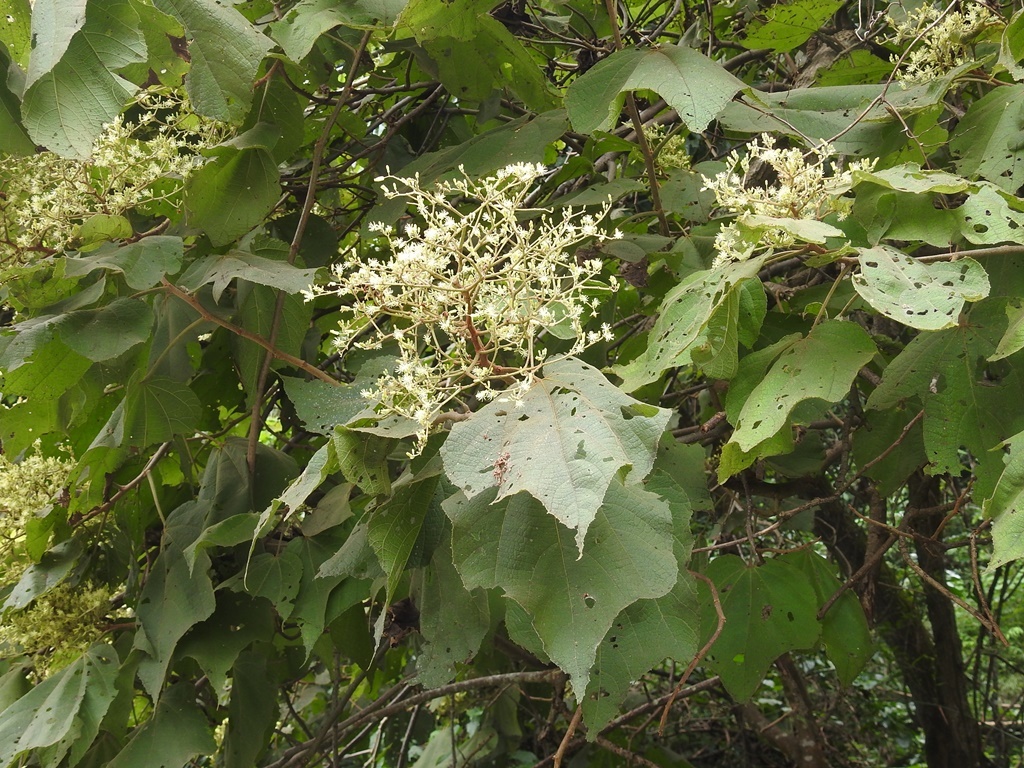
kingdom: Plantae
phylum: Tracheophyta
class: Magnoliopsida
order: Malvales
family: Malvaceae
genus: Heliocarpus
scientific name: Heliocarpus americanus
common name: White moho
